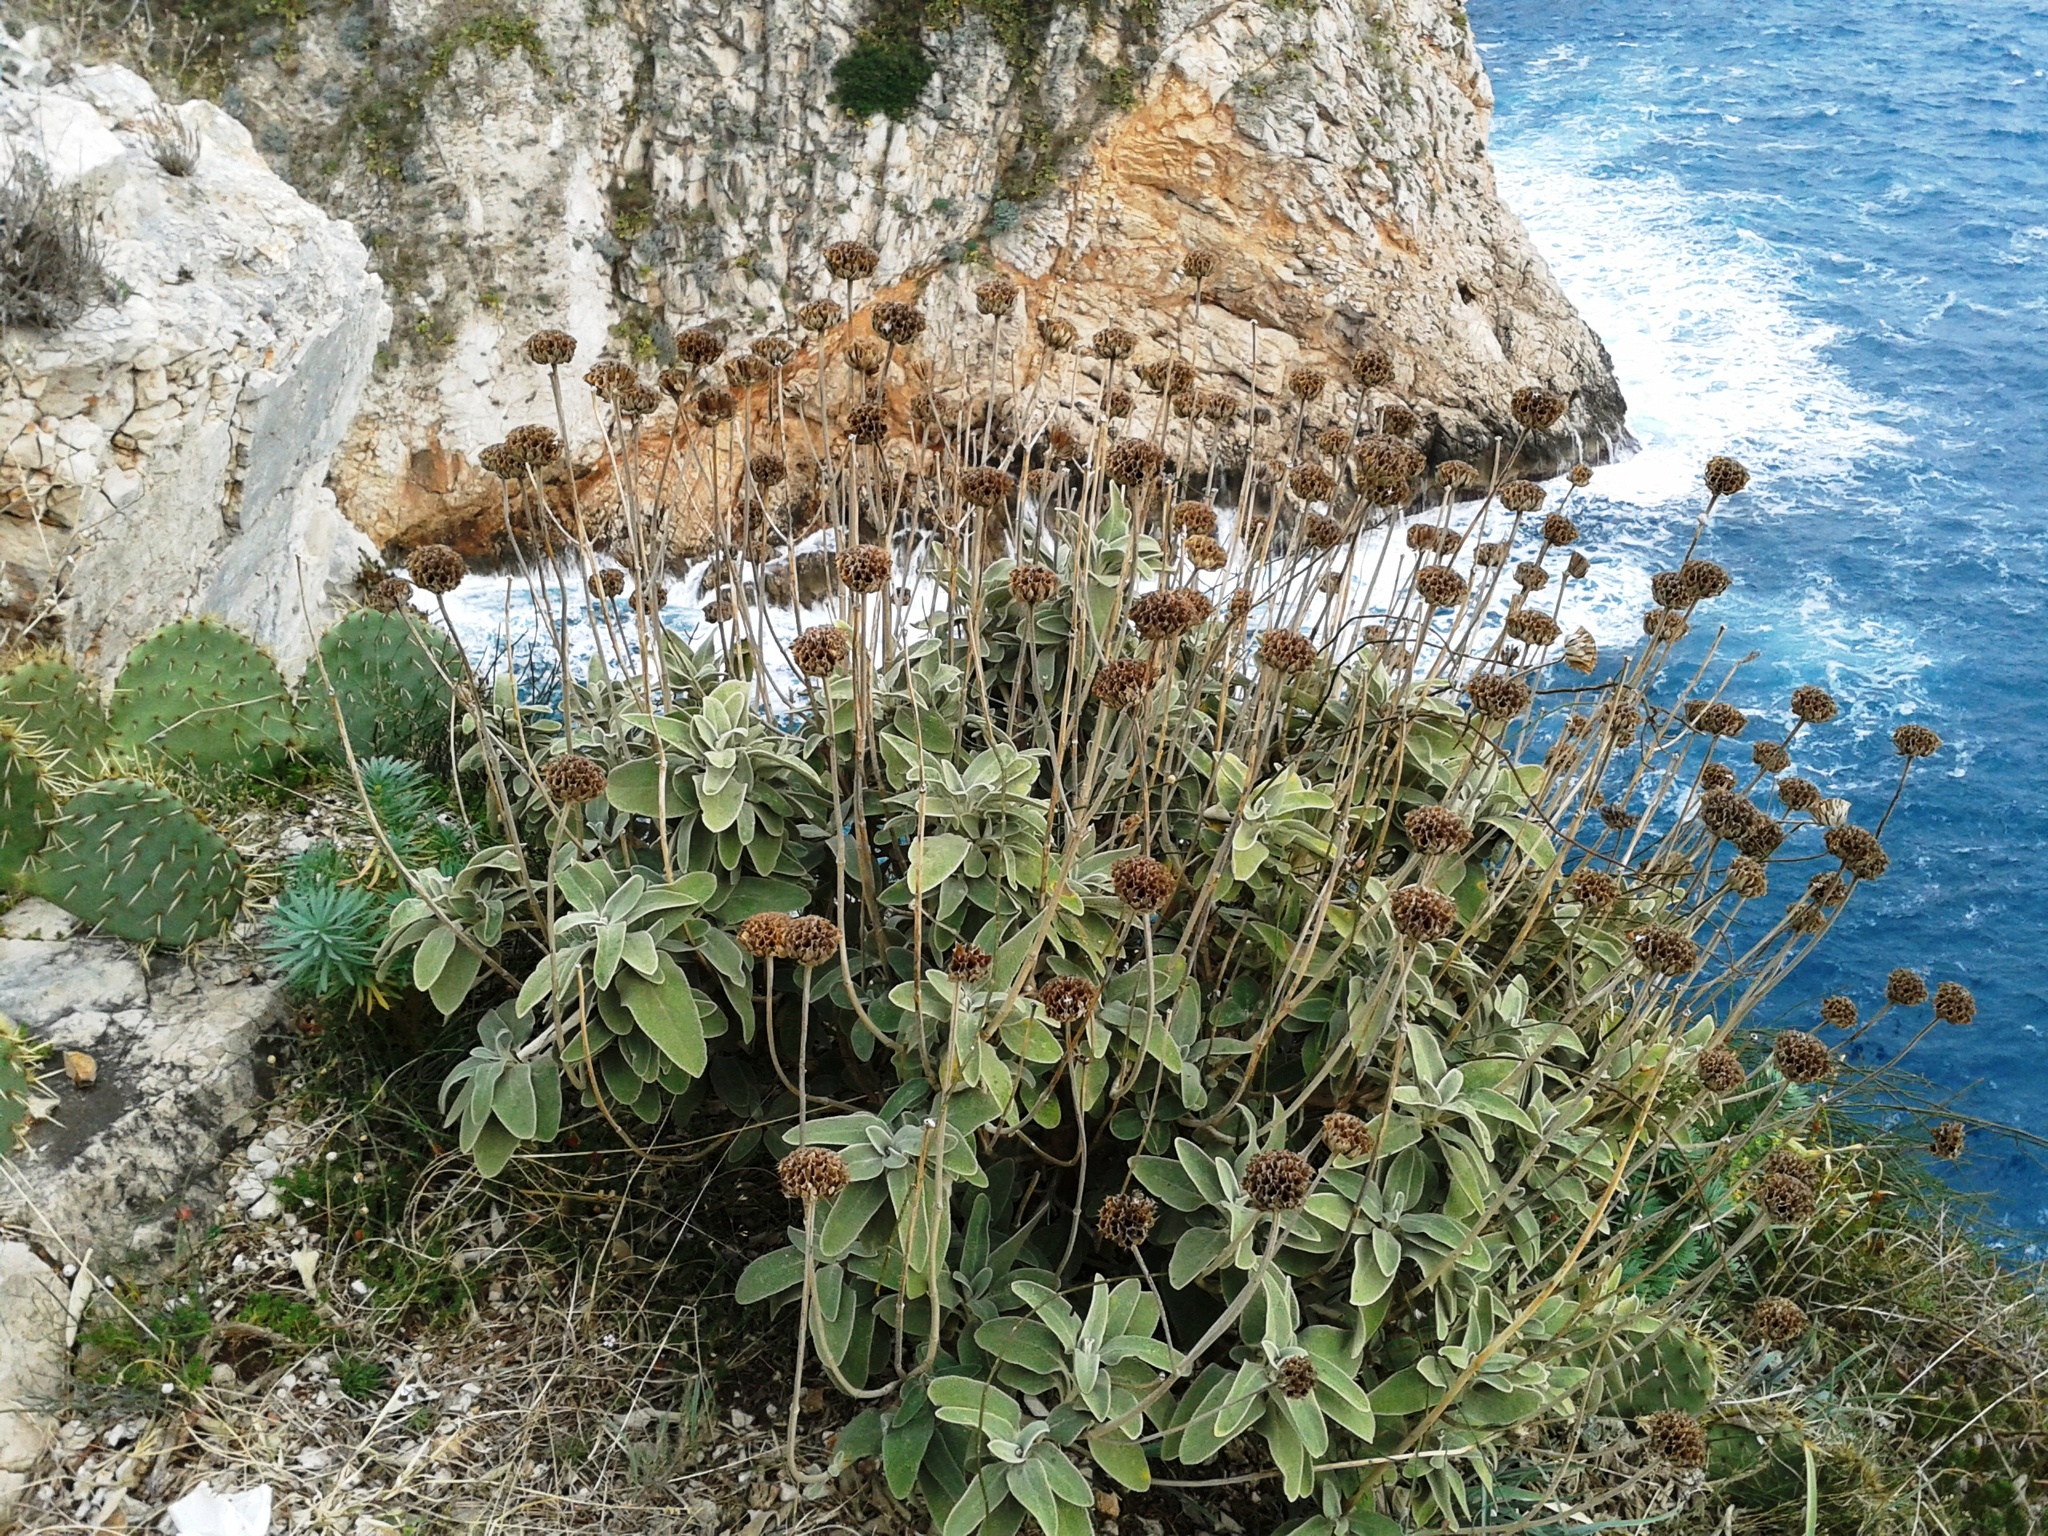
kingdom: Plantae
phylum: Tracheophyta
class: Magnoliopsida
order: Lamiales
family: Lamiaceae
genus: Phlomis
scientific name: Phlomis fruticosa
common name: Jerusalem sage
